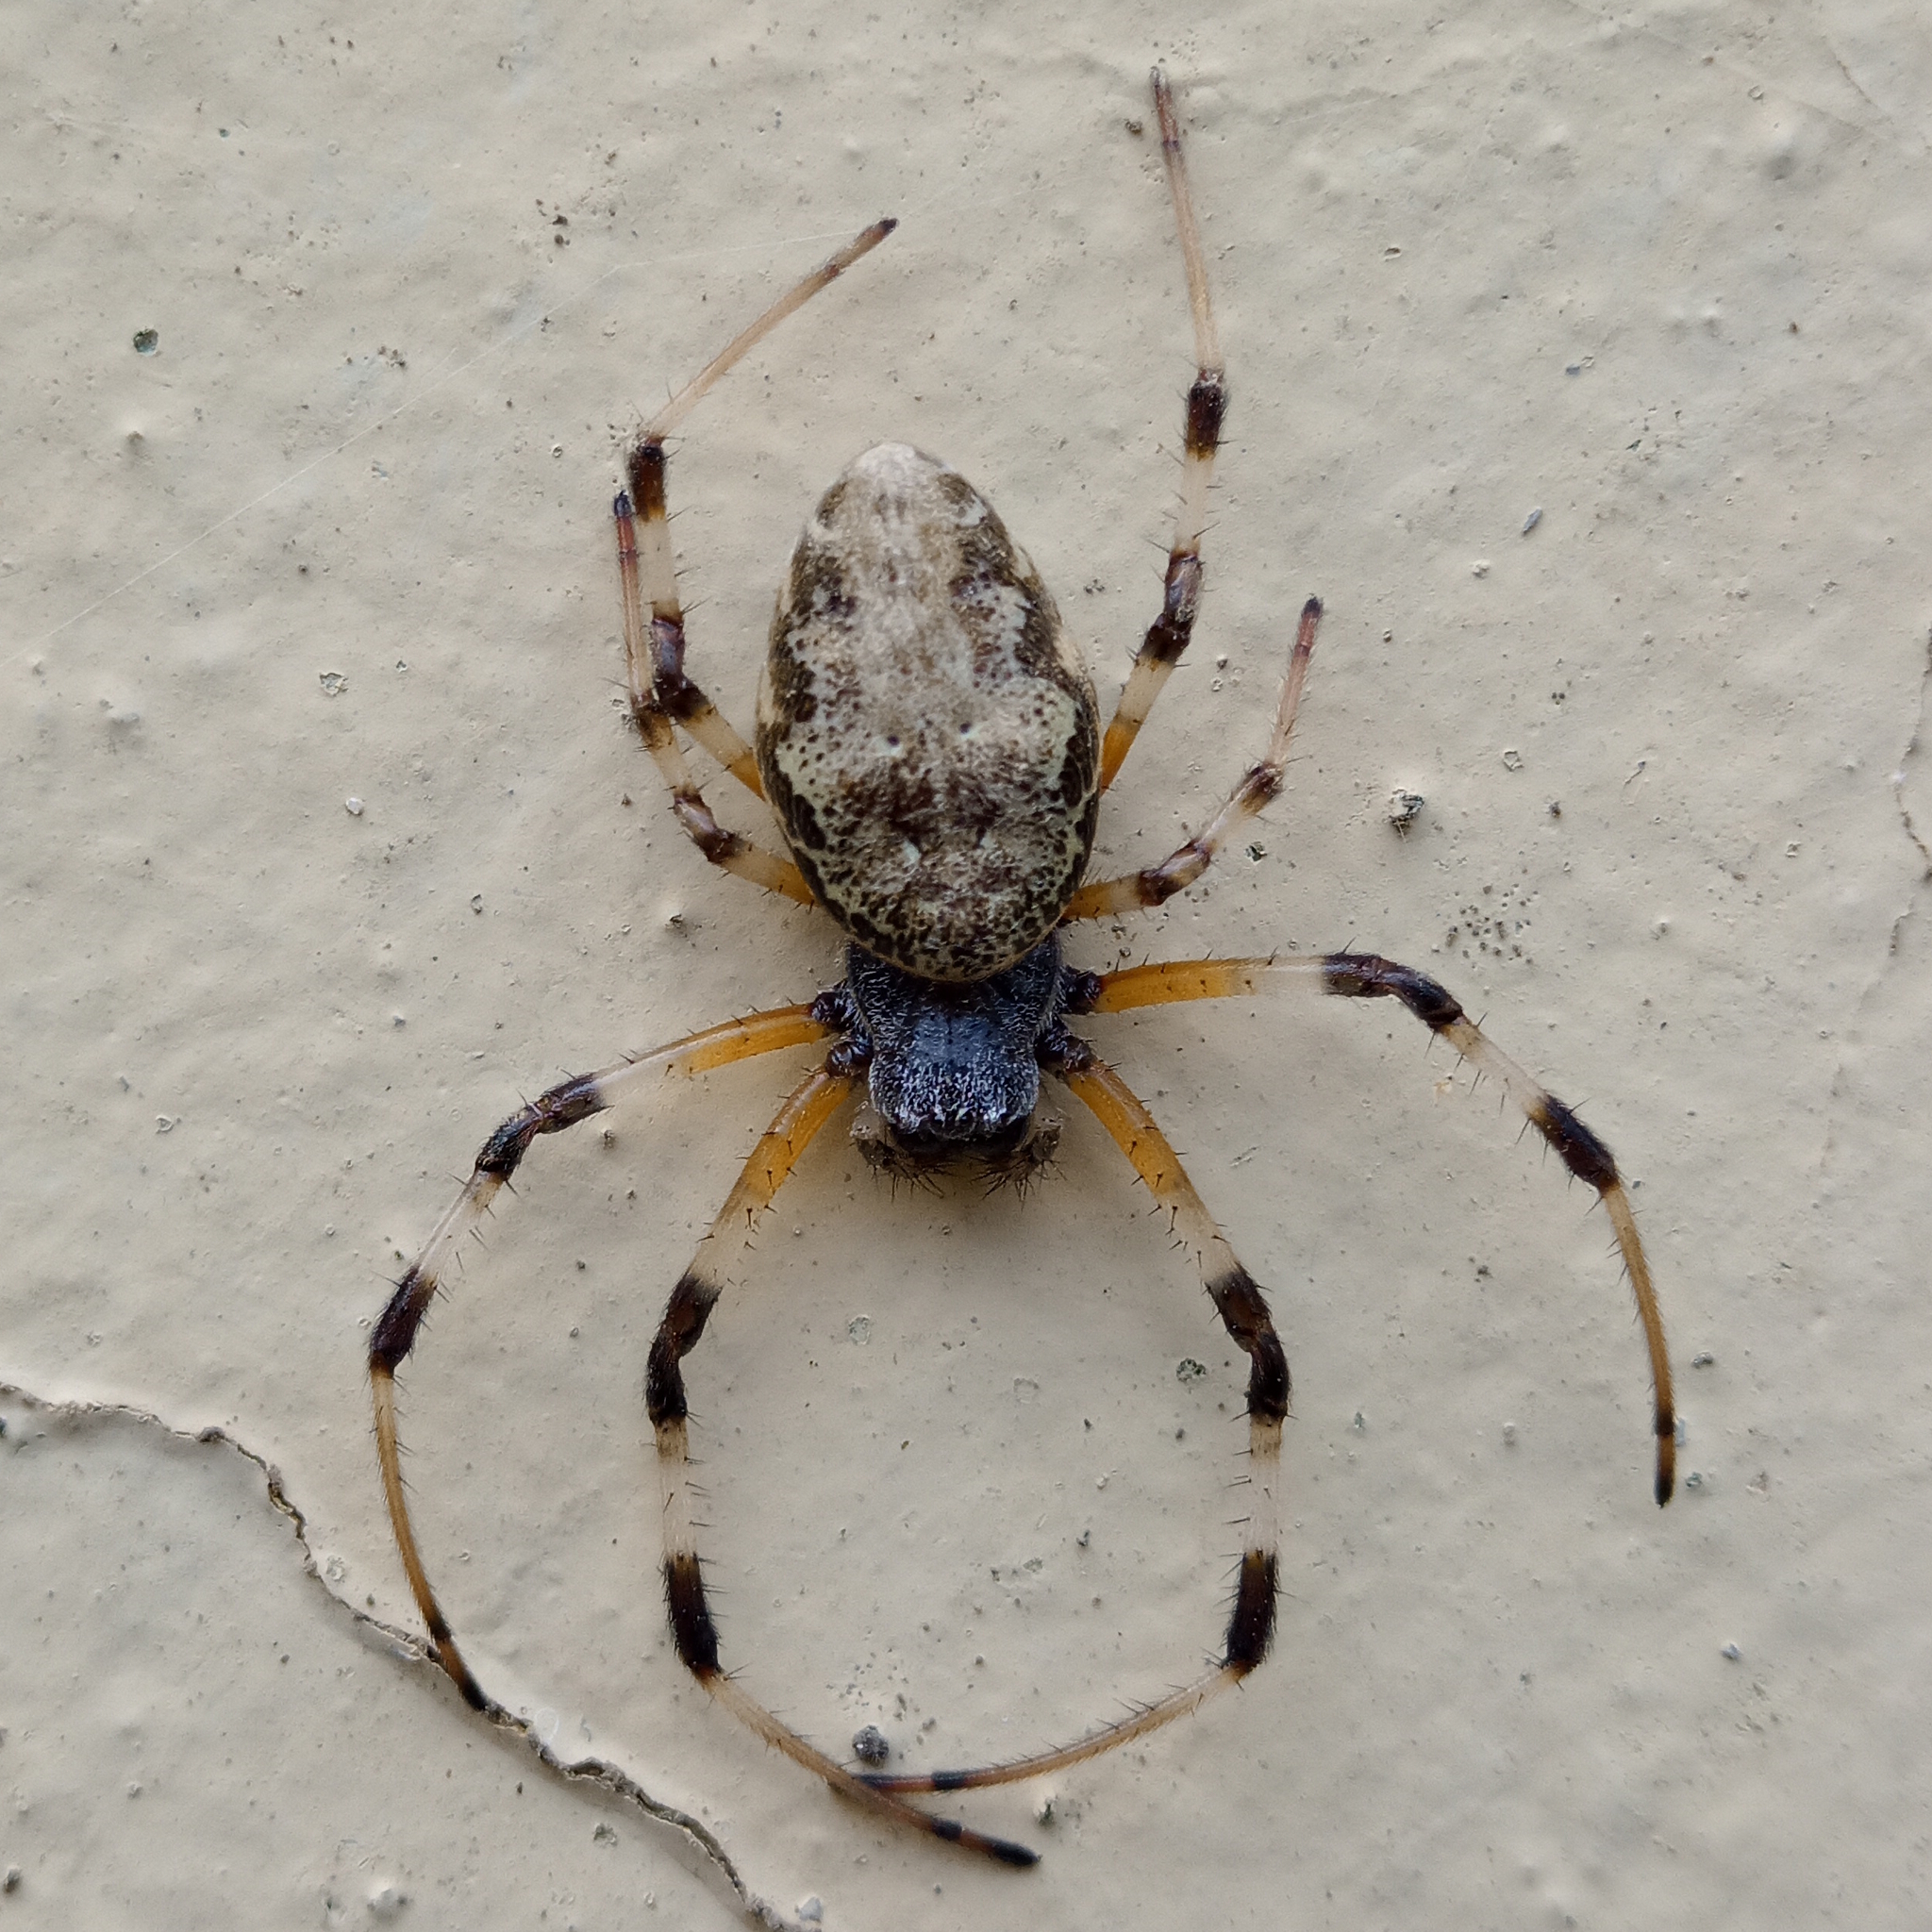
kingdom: Animalia
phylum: Arthropoda
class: Arachnida
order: Araneae
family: Araneidae
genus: Nephilingis
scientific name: Nephilingis cruentata
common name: African hermit spider
